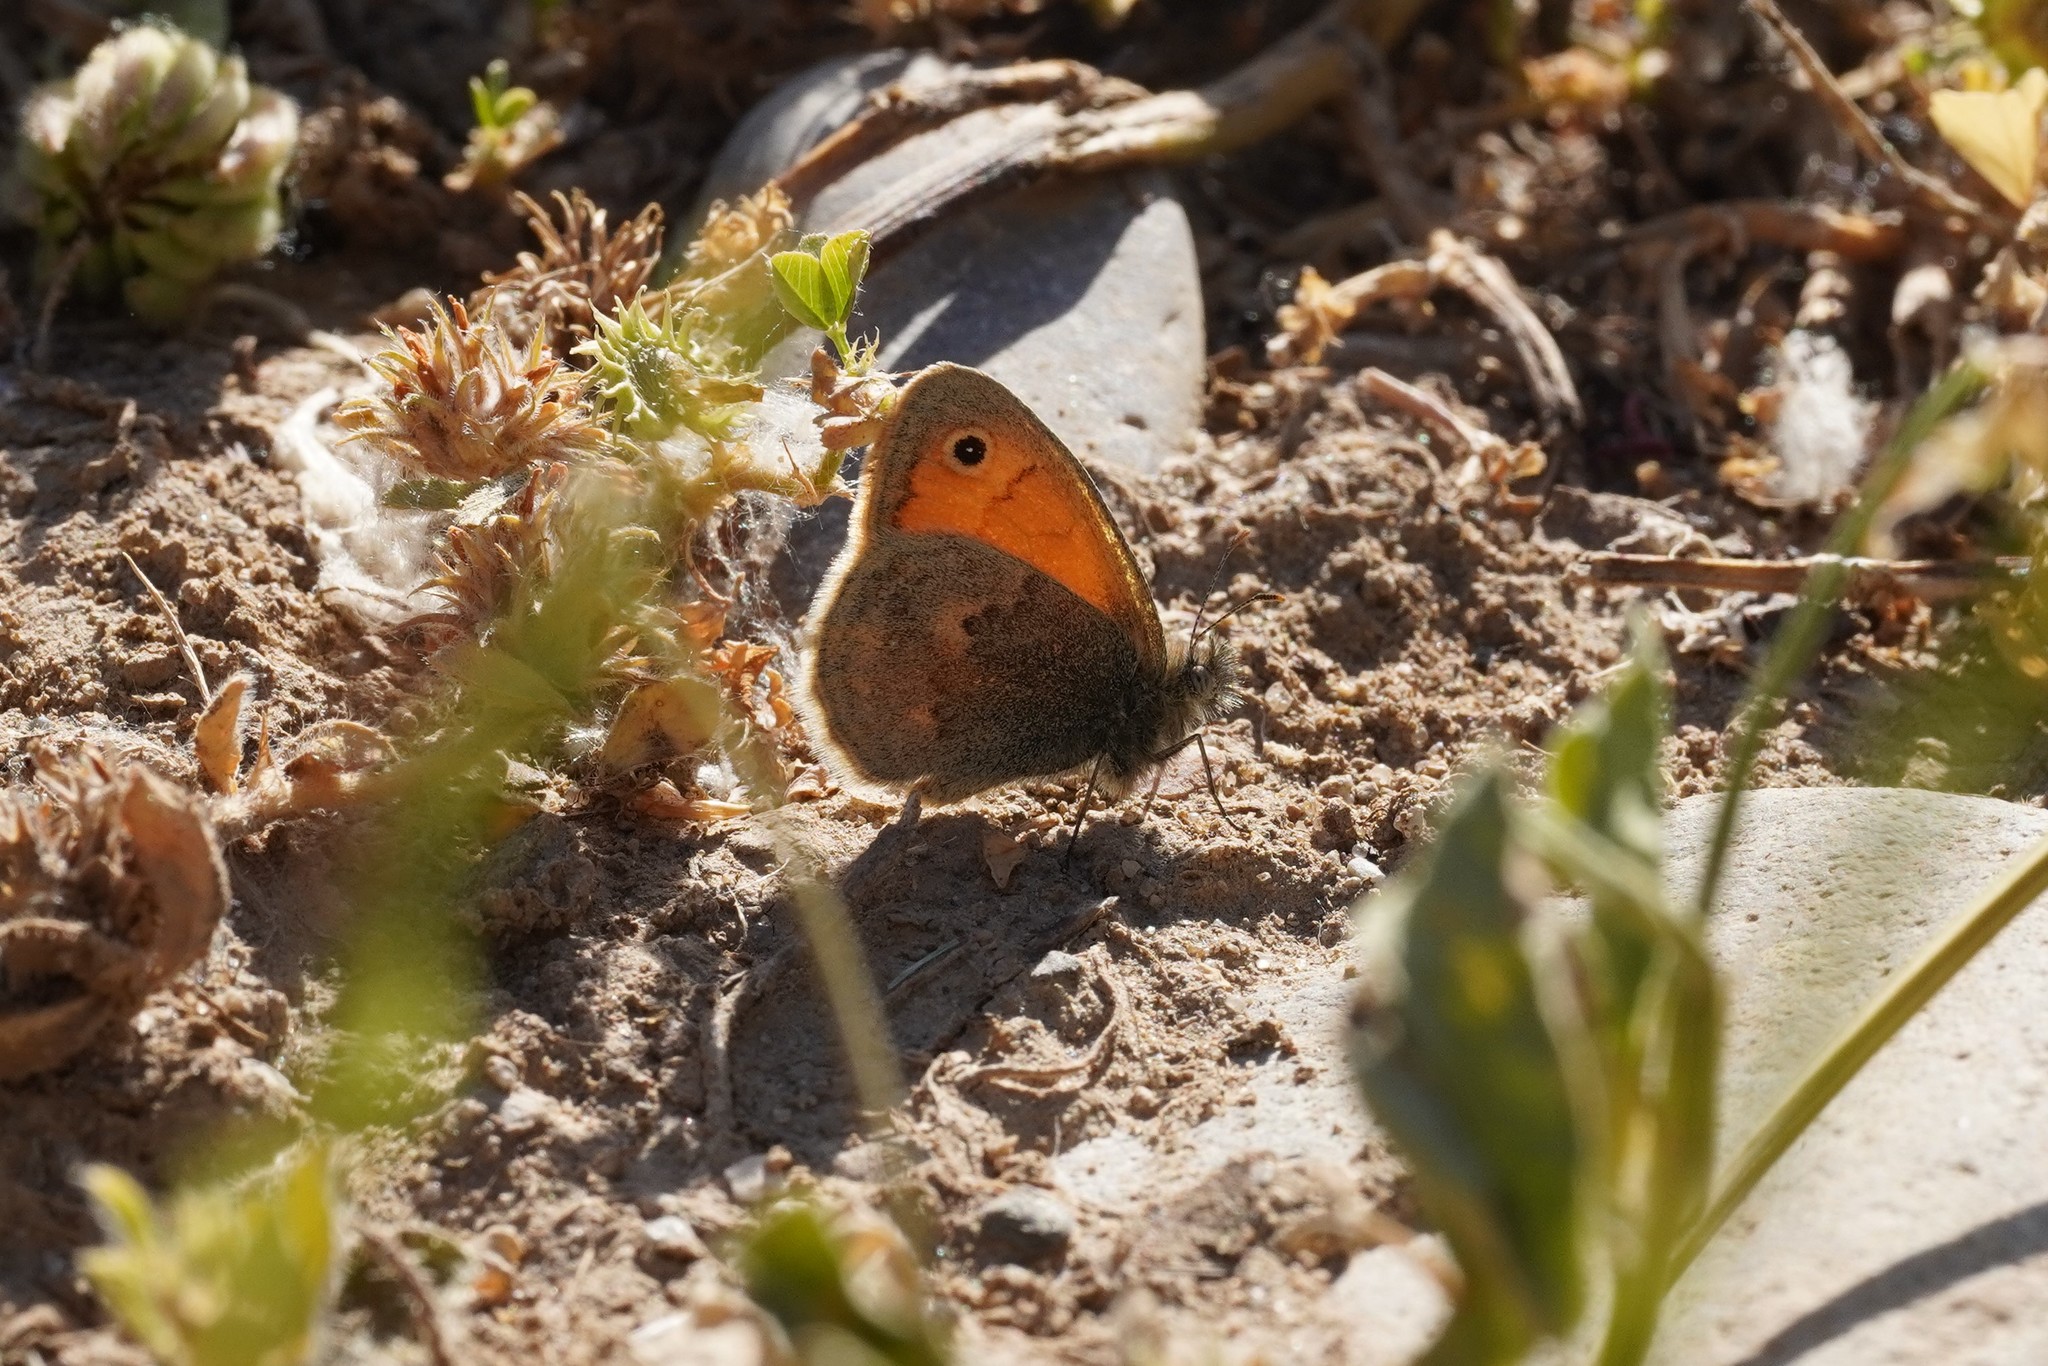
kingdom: Animalia
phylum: Arthropoda
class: Insecta
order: Lepidoptera
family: Nymphalidae
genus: Coenonympha
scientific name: Coenonympha pamphilus
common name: Small heath
